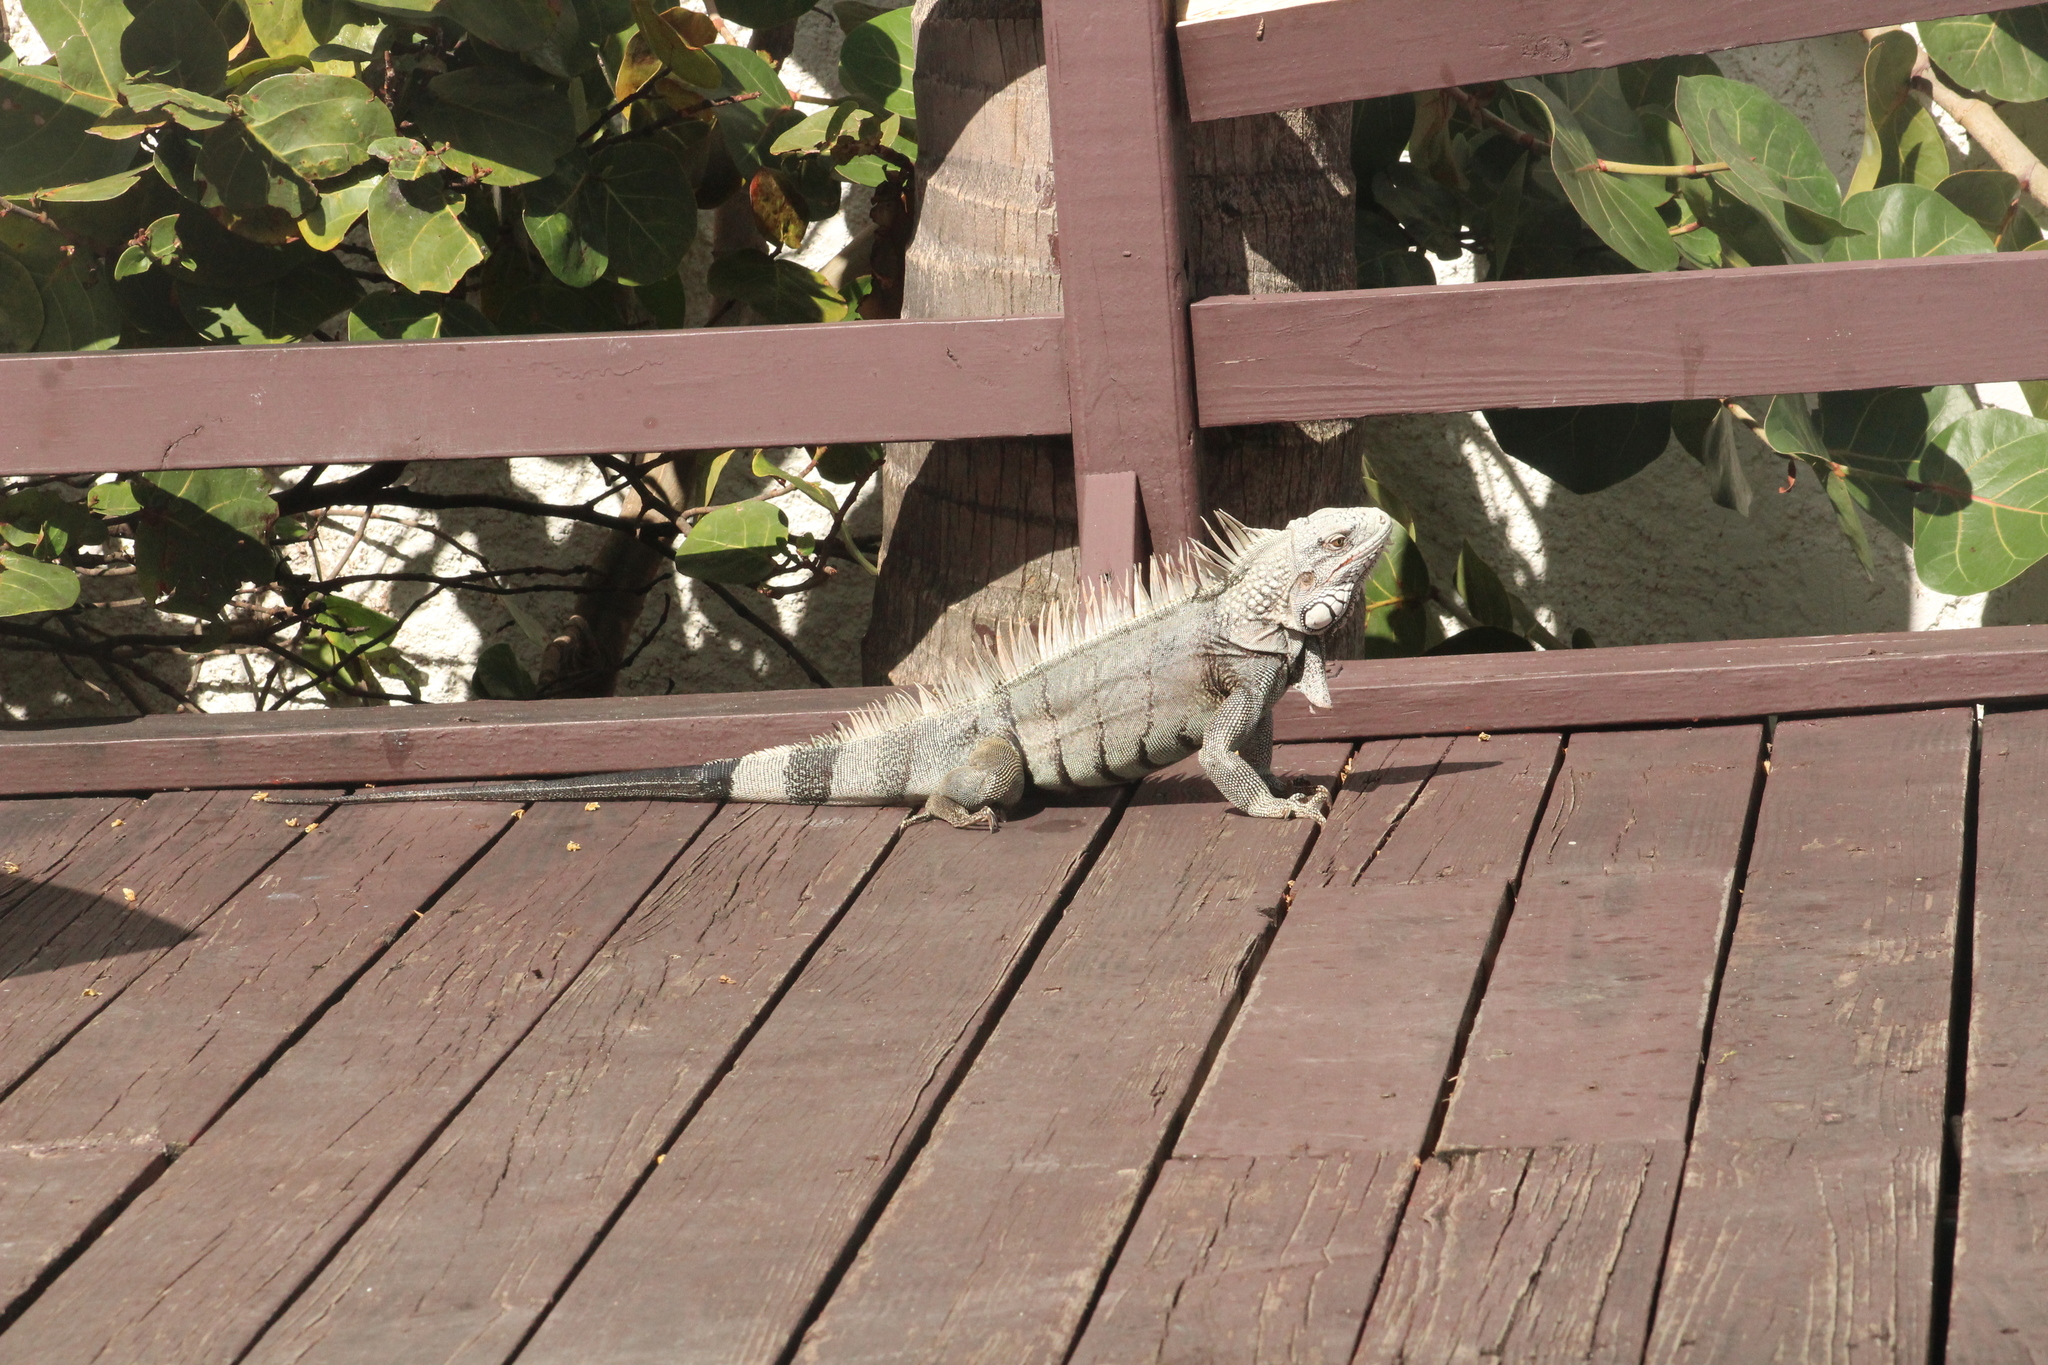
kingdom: Animalia
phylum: Chordata
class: Squamata
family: Iguanidae
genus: Iguana
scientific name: Iguana iguana
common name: Green iguana
